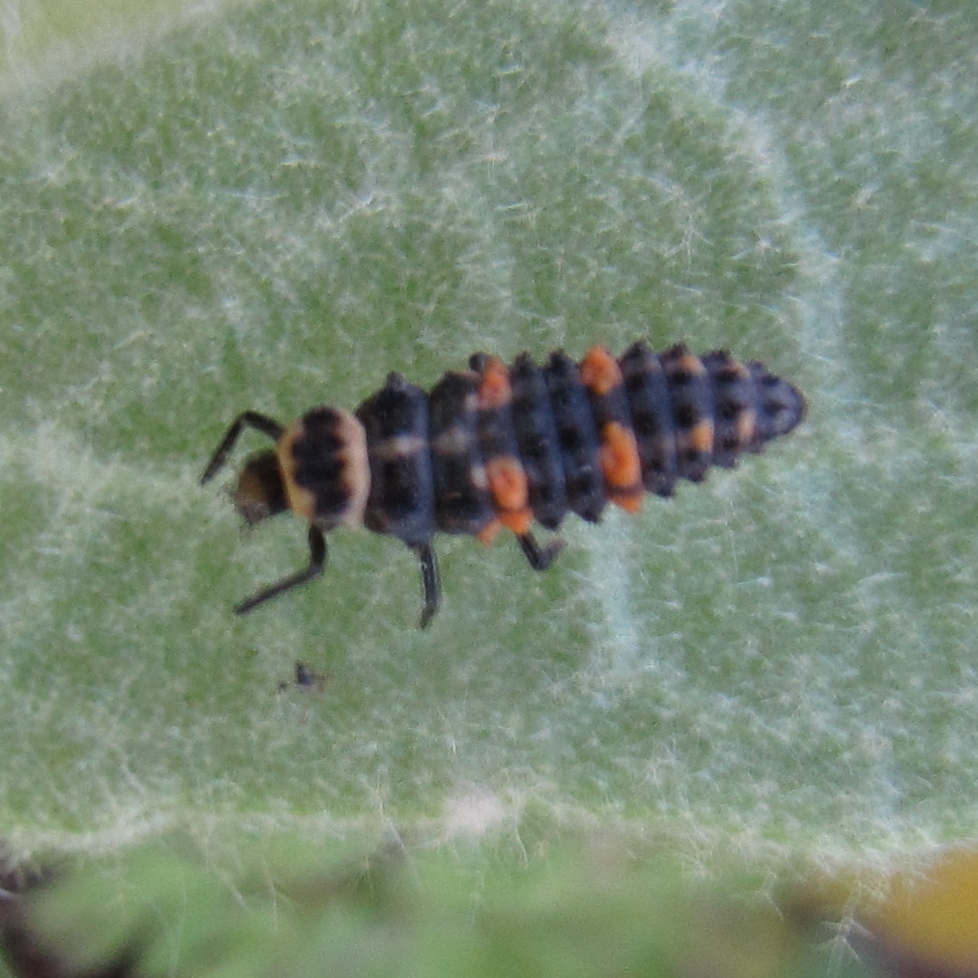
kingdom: Animalia
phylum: Arthropoda
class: Insecta
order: Coleoptera
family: Coccinellidae
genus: Hippodamia
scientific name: Hippodamia convergens
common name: Convergent lady beetle
